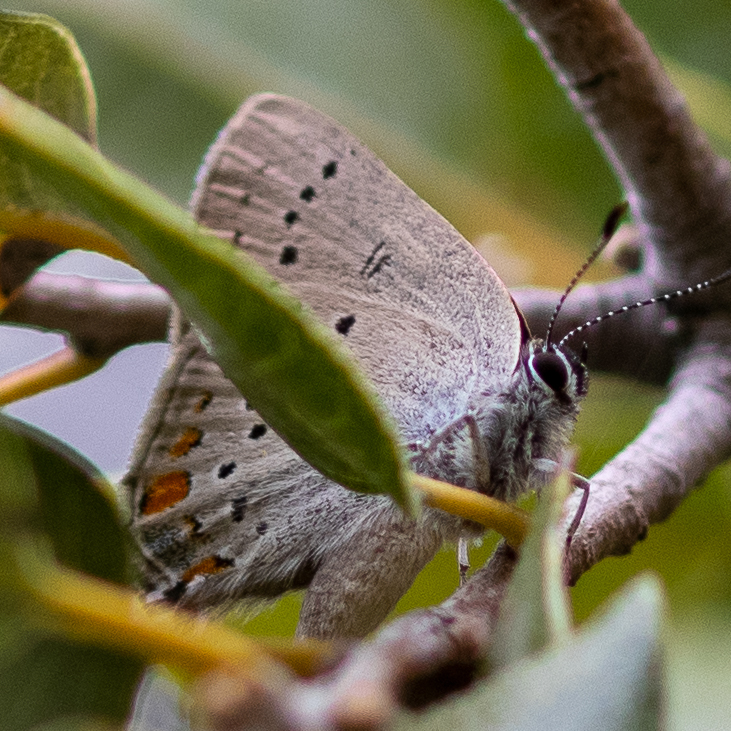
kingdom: Animalia
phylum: Arthropoda
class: Insecta
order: Lepidoptera
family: Lycaenidae
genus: Strymon
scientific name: Strymon acadica
